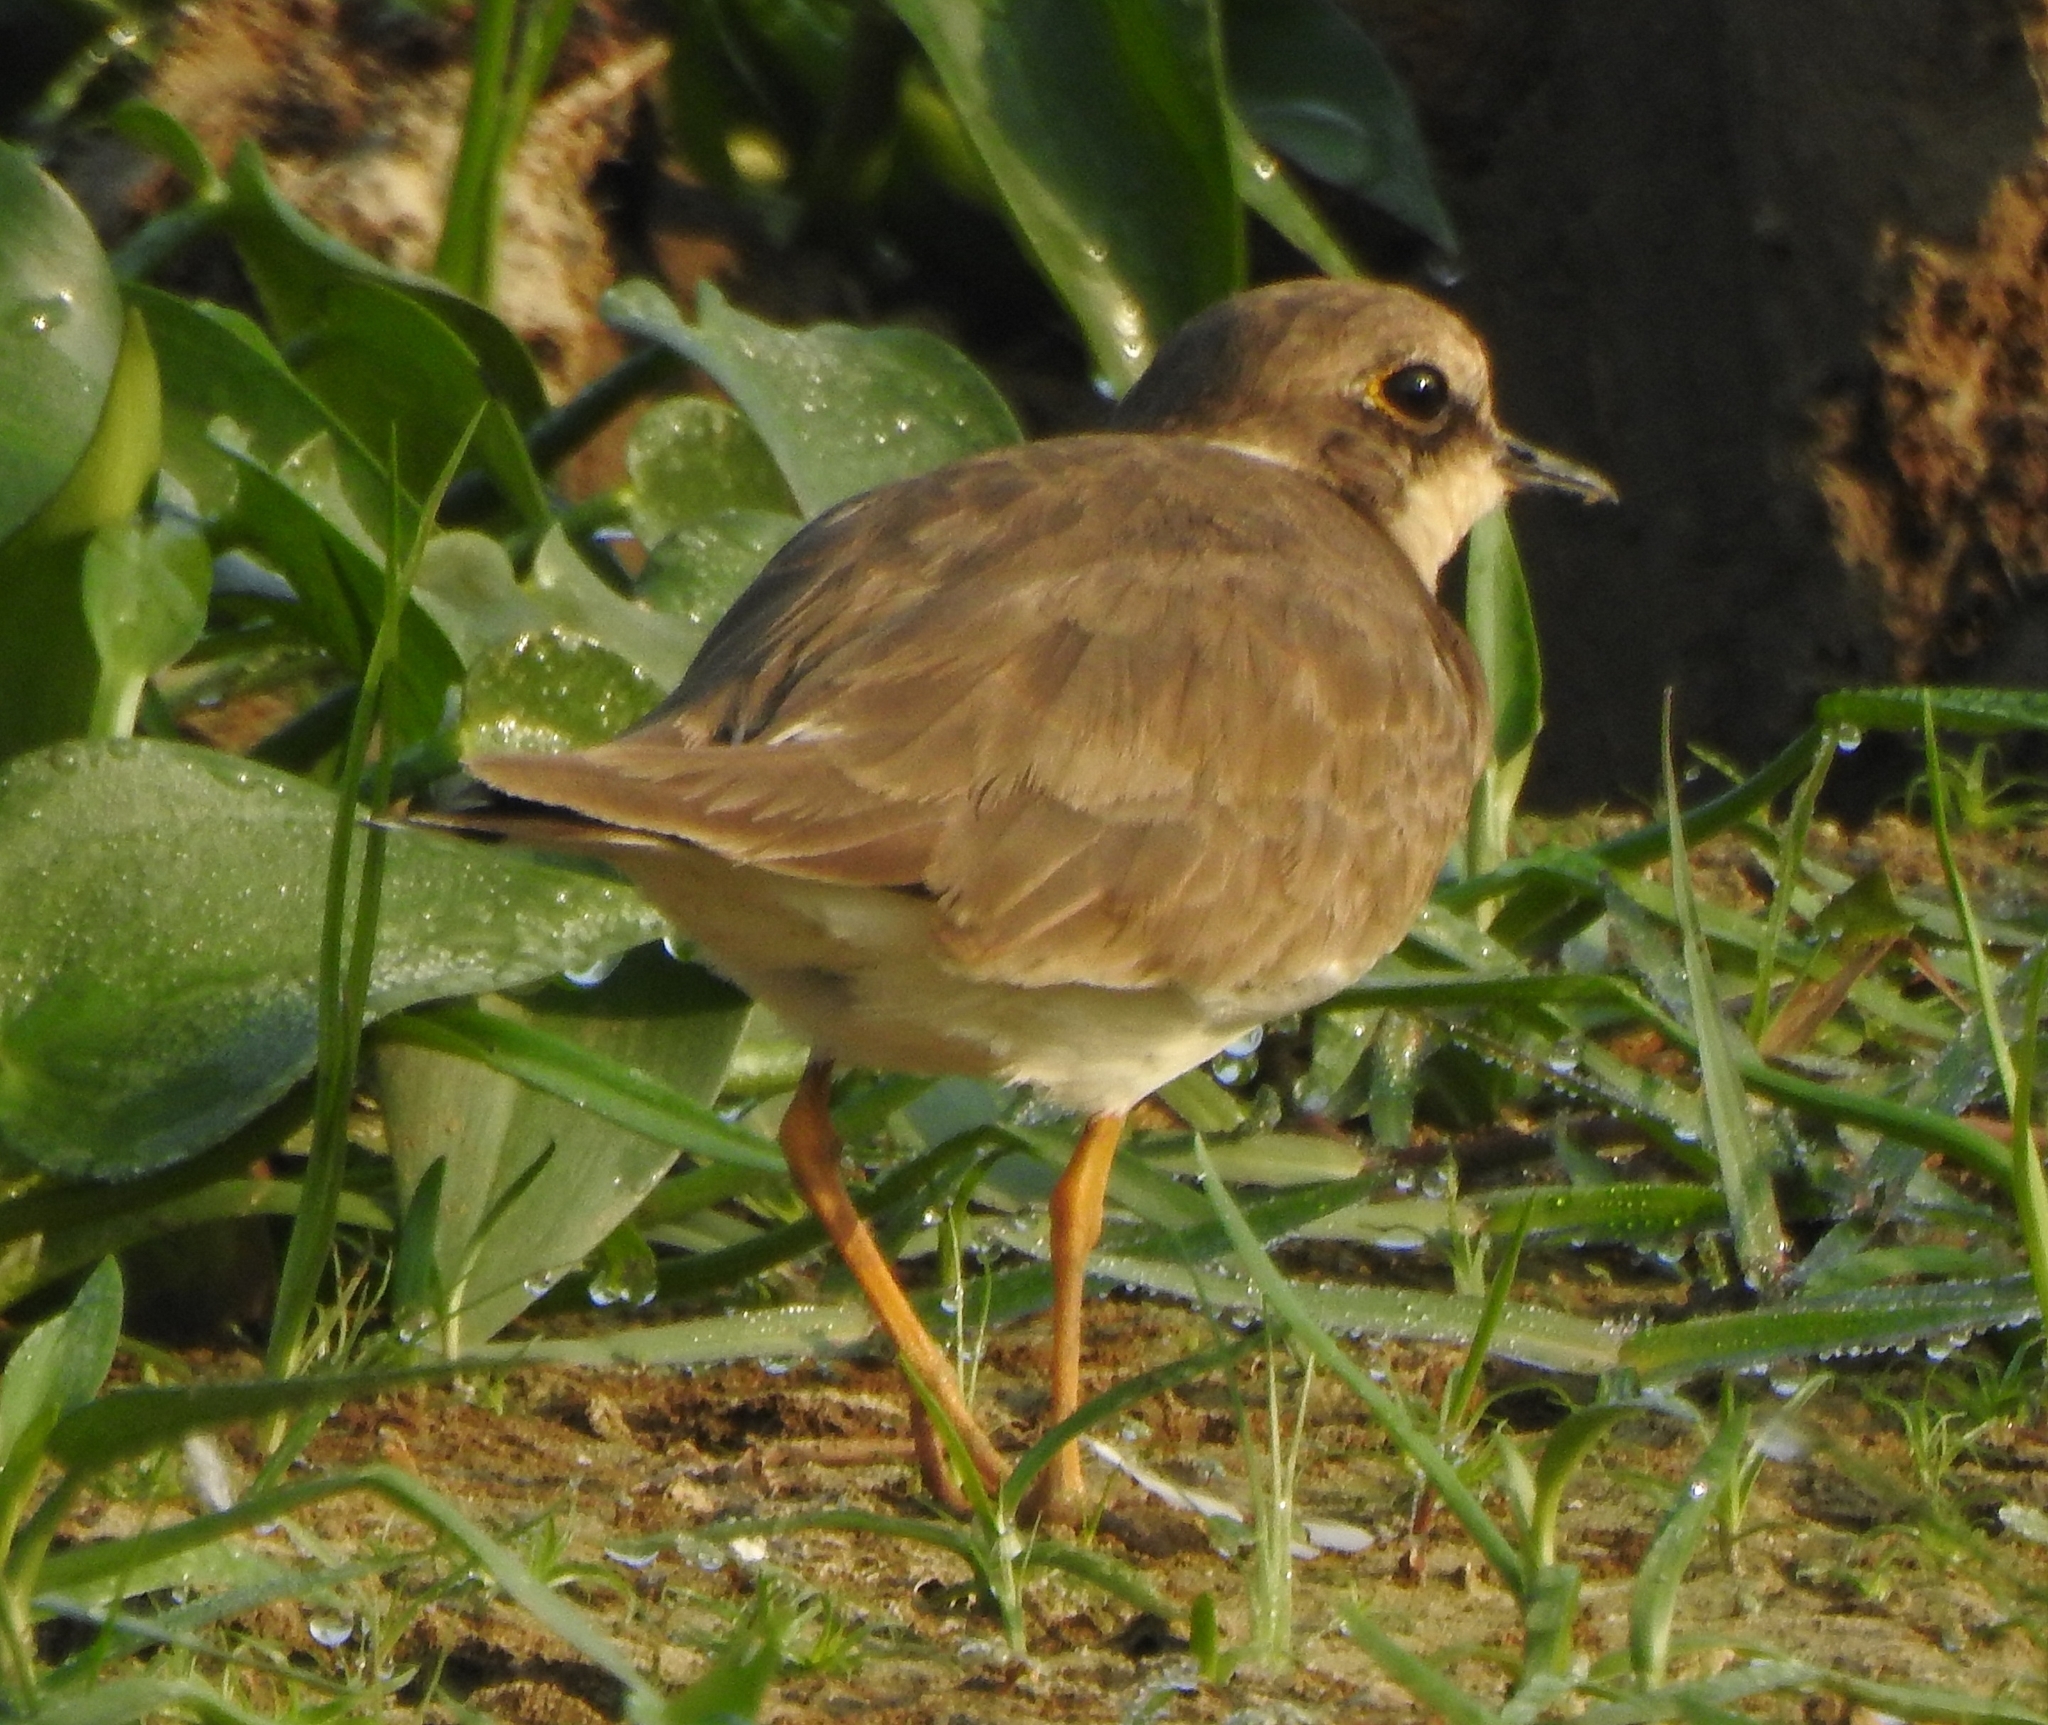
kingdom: Animalia
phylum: Chordata
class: Aves
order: Charadriiformes
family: Charadriidae
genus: Charadrius
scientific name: Charadrius dubius
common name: Little ringed plover
